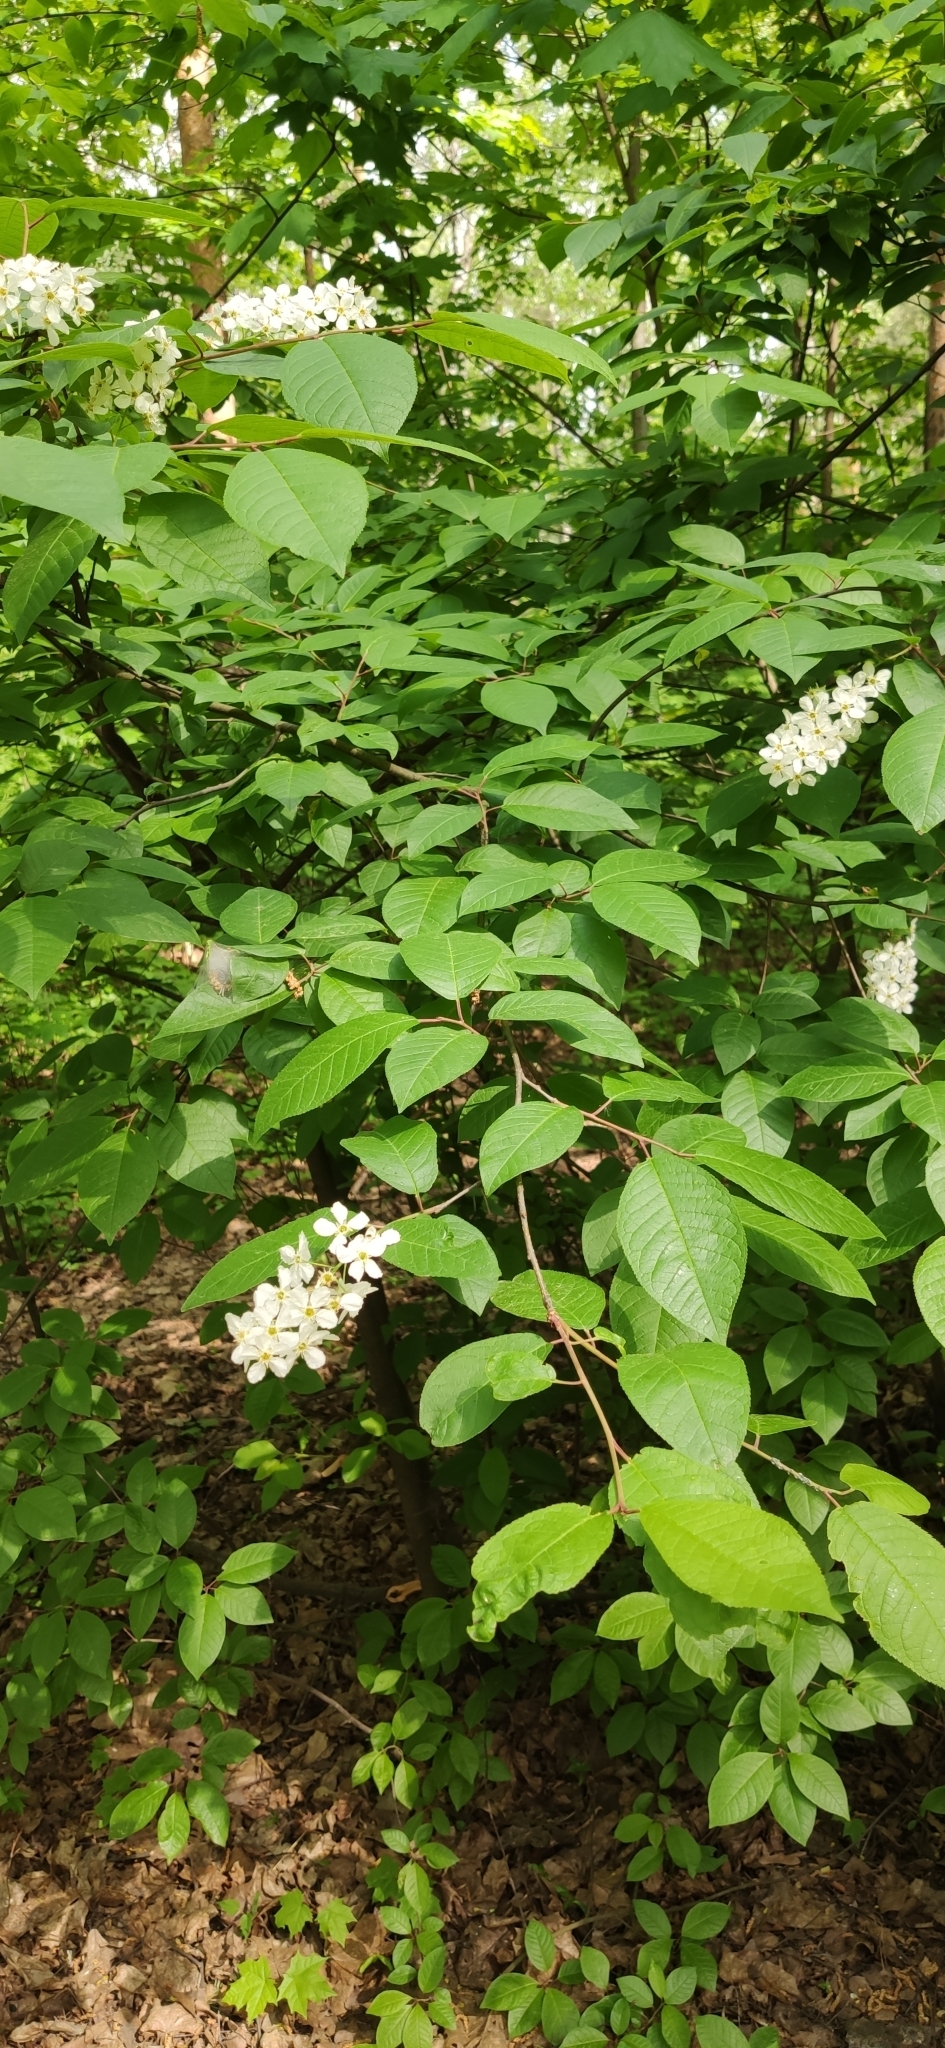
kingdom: Plantae
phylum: Tracheophyta
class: Magnoliopsida
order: Rosales
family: Rosaceae
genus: Prunus
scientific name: Prunus padus
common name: Bird cherry
